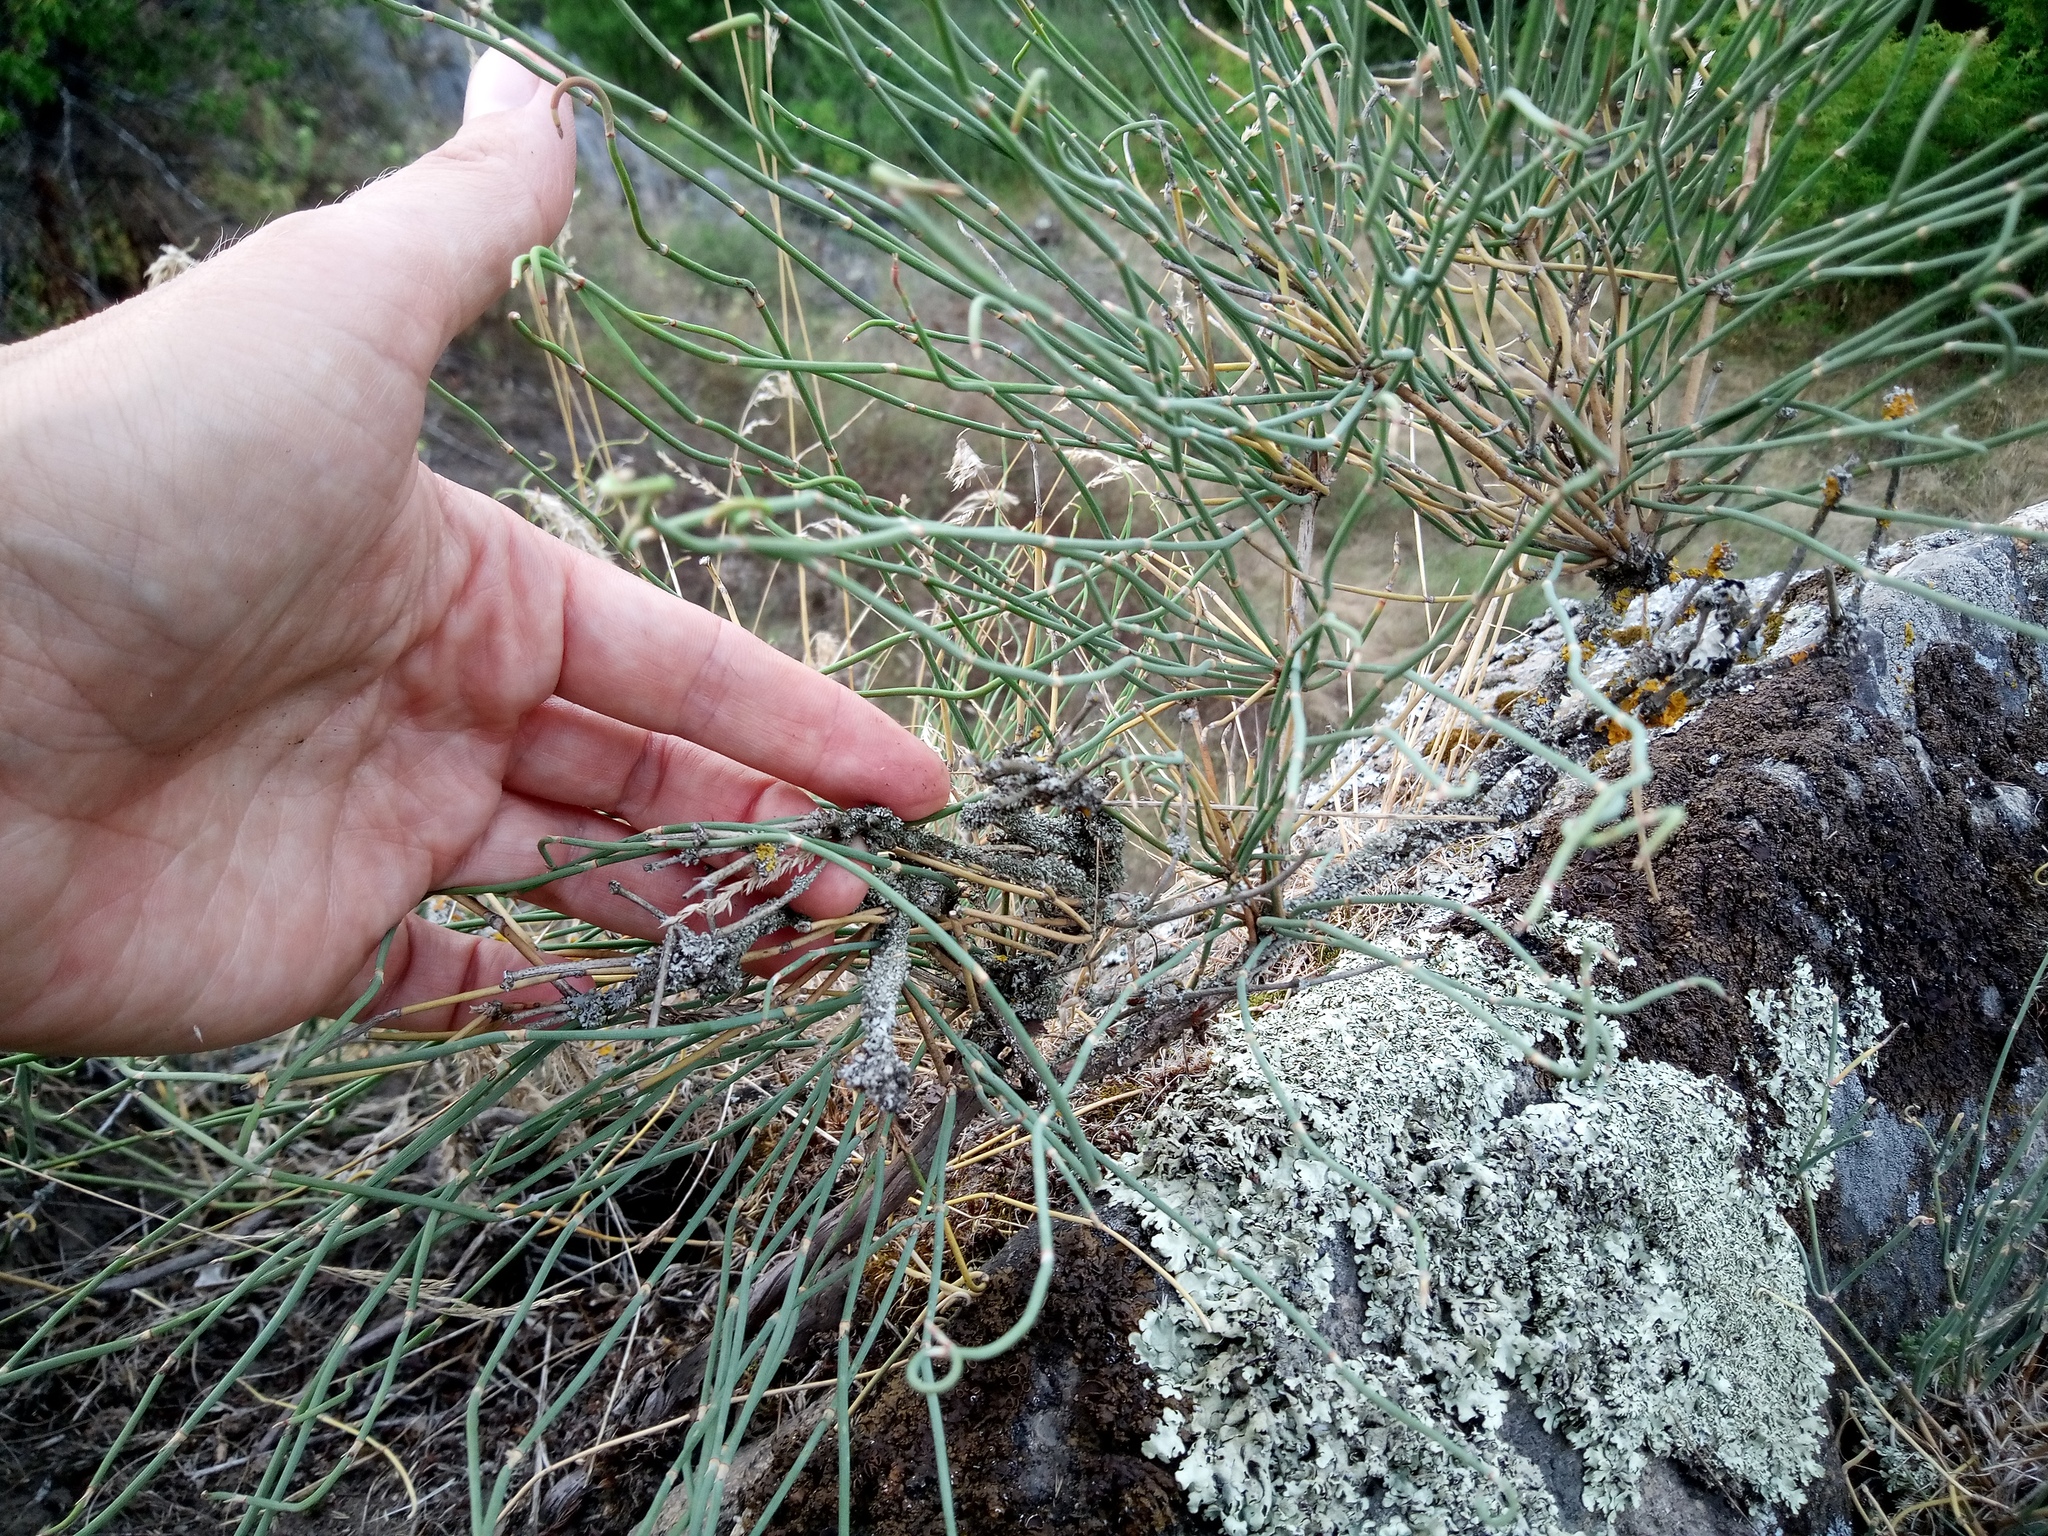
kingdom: Plantae
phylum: Tracheophyta
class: Gnetopsida
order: Ephedrales
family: Ephedraceae
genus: Ephedra
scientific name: Ephedra distachya
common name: Sea grape
